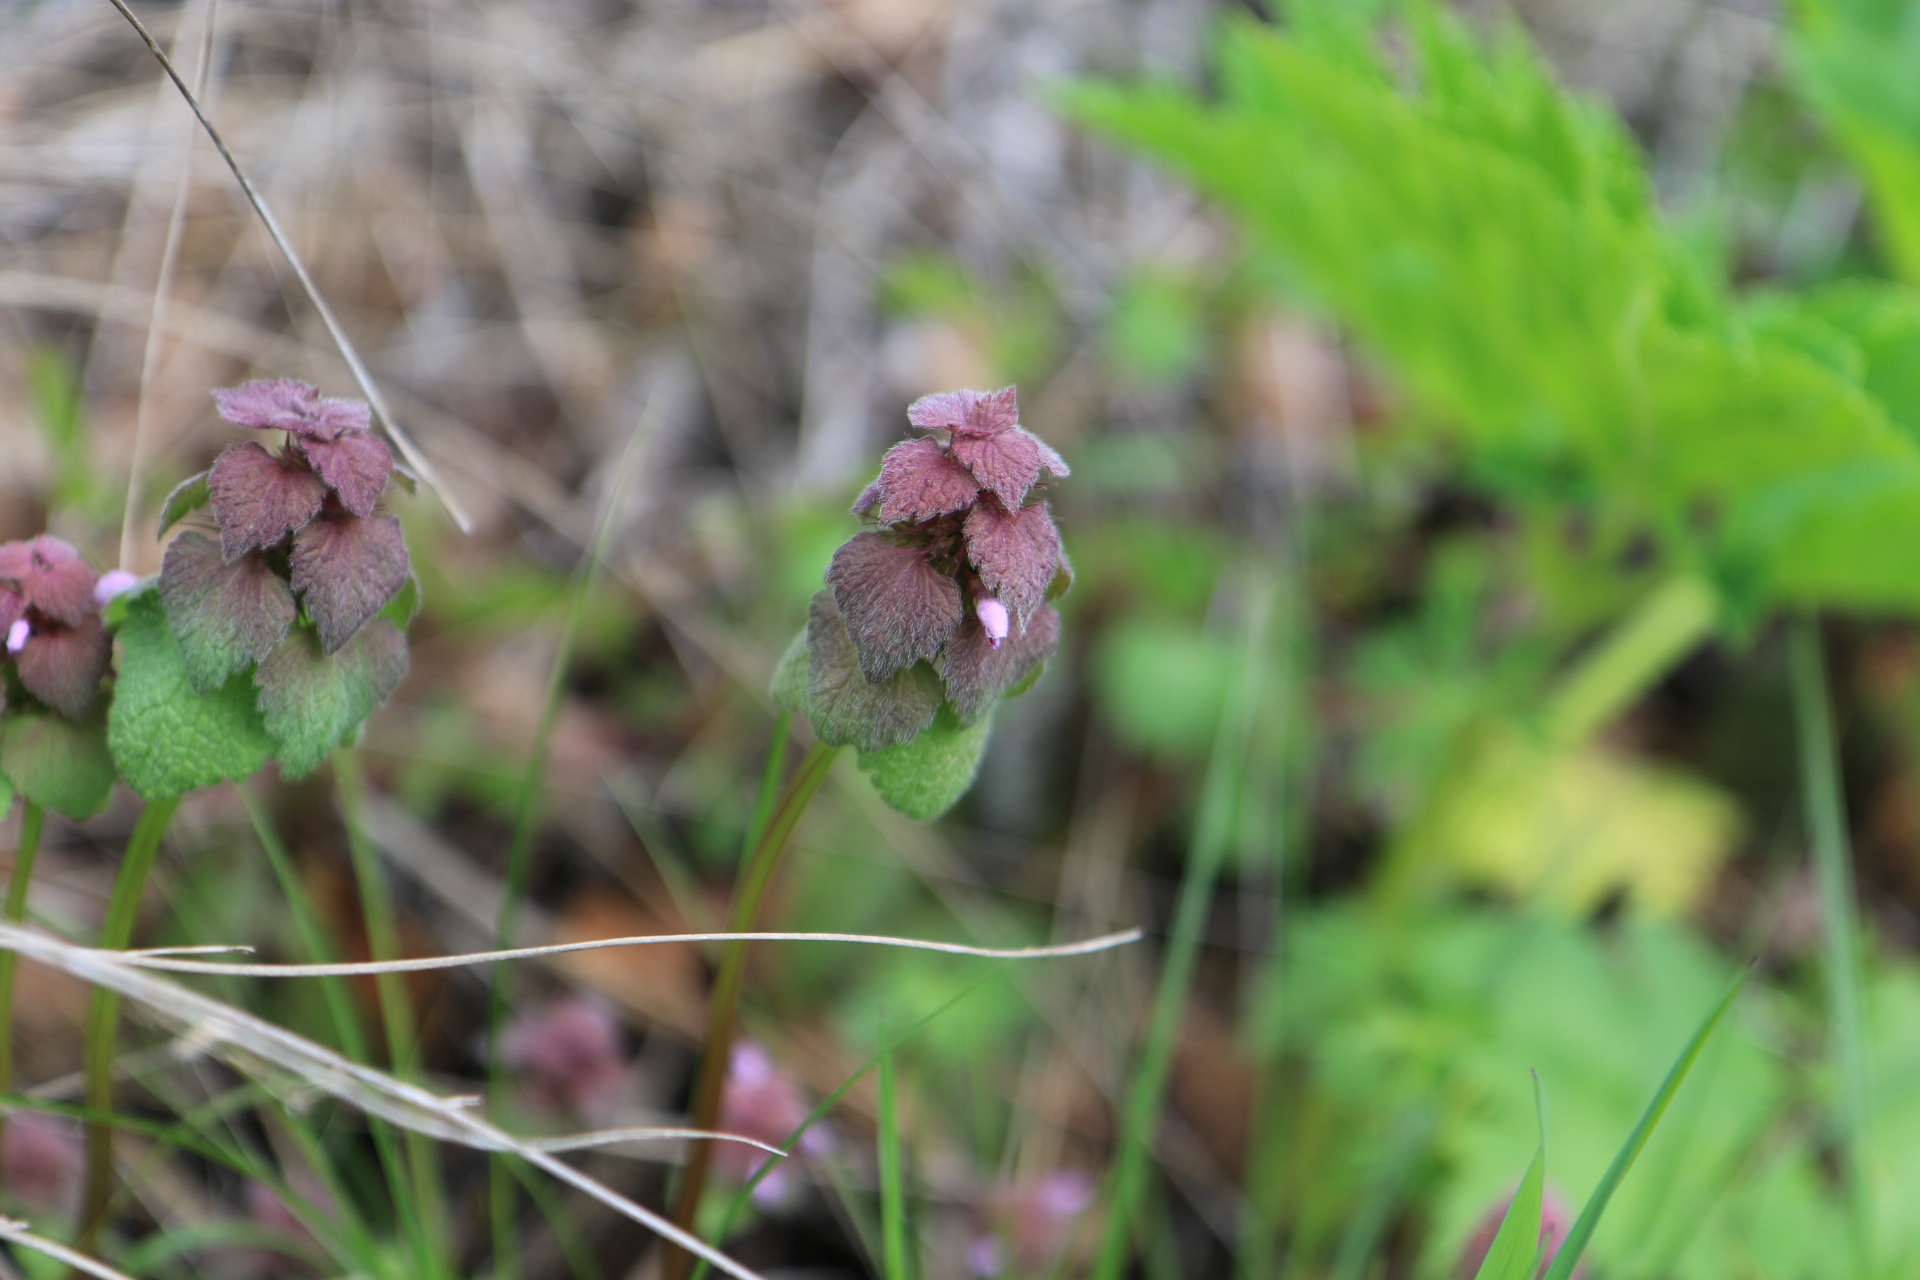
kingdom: Plantae
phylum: Tracheophyta
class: Magnoliopsida
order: Lamiales
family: Lamiaceae
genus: Lamium
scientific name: Lamium purpureum
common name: Red dead-nettle
